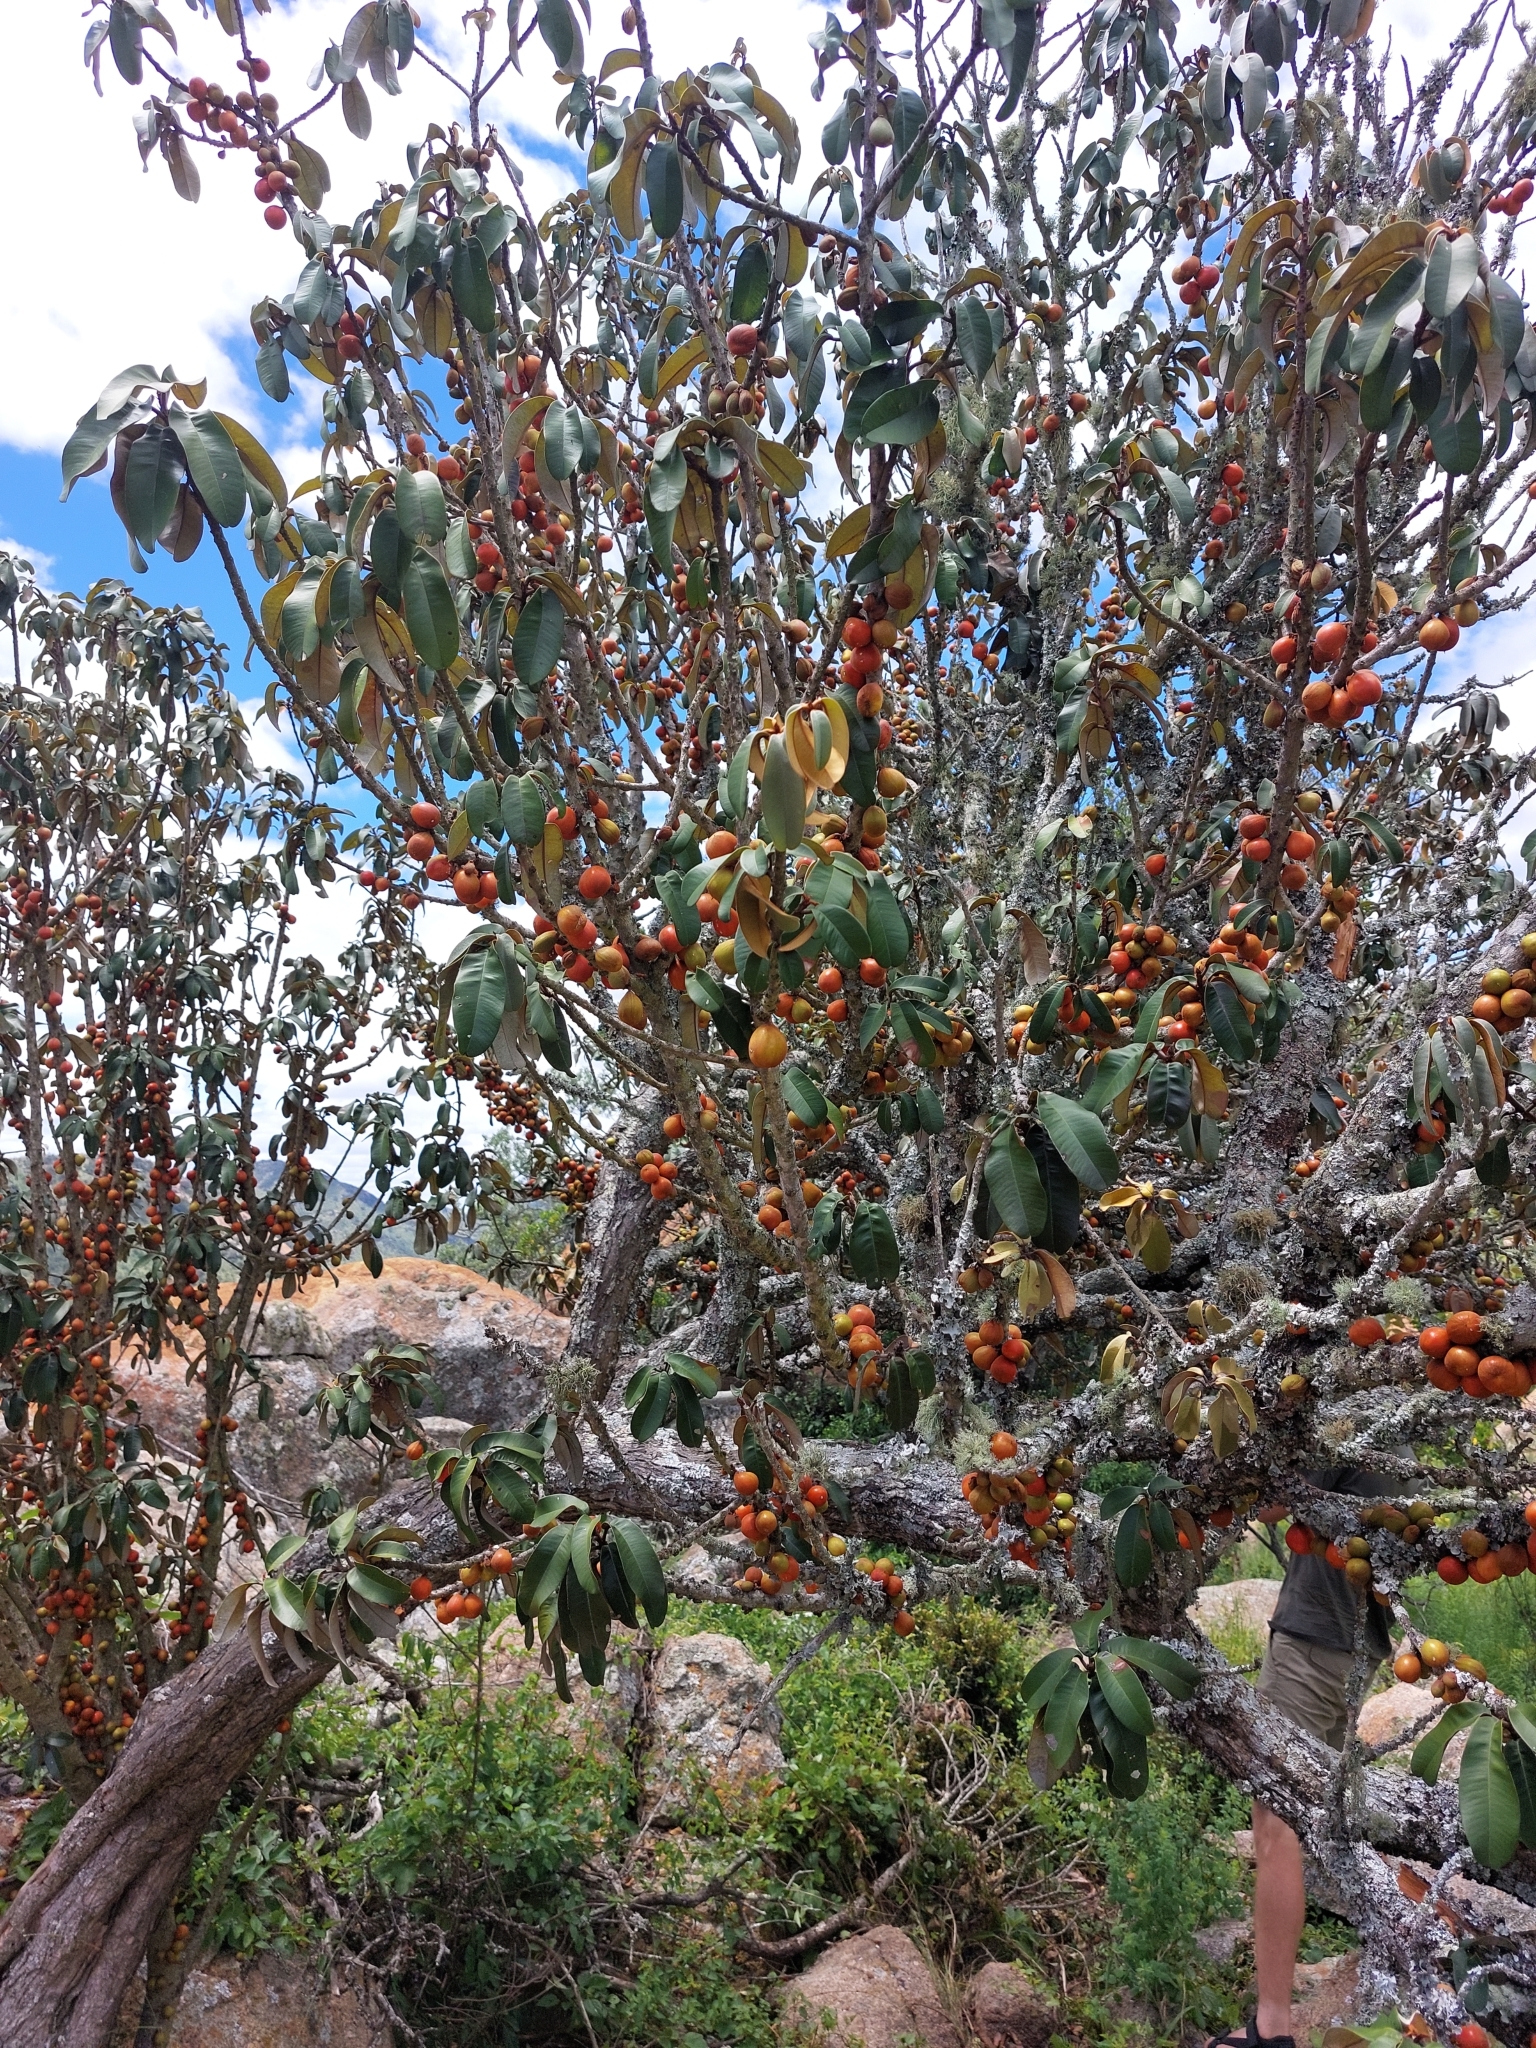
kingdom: Plantae
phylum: Tracheophyta
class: Magnoliopsida
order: Ericales
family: Sapotaceae
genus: Englerophytum
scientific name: Englerophytum magalismontanum
